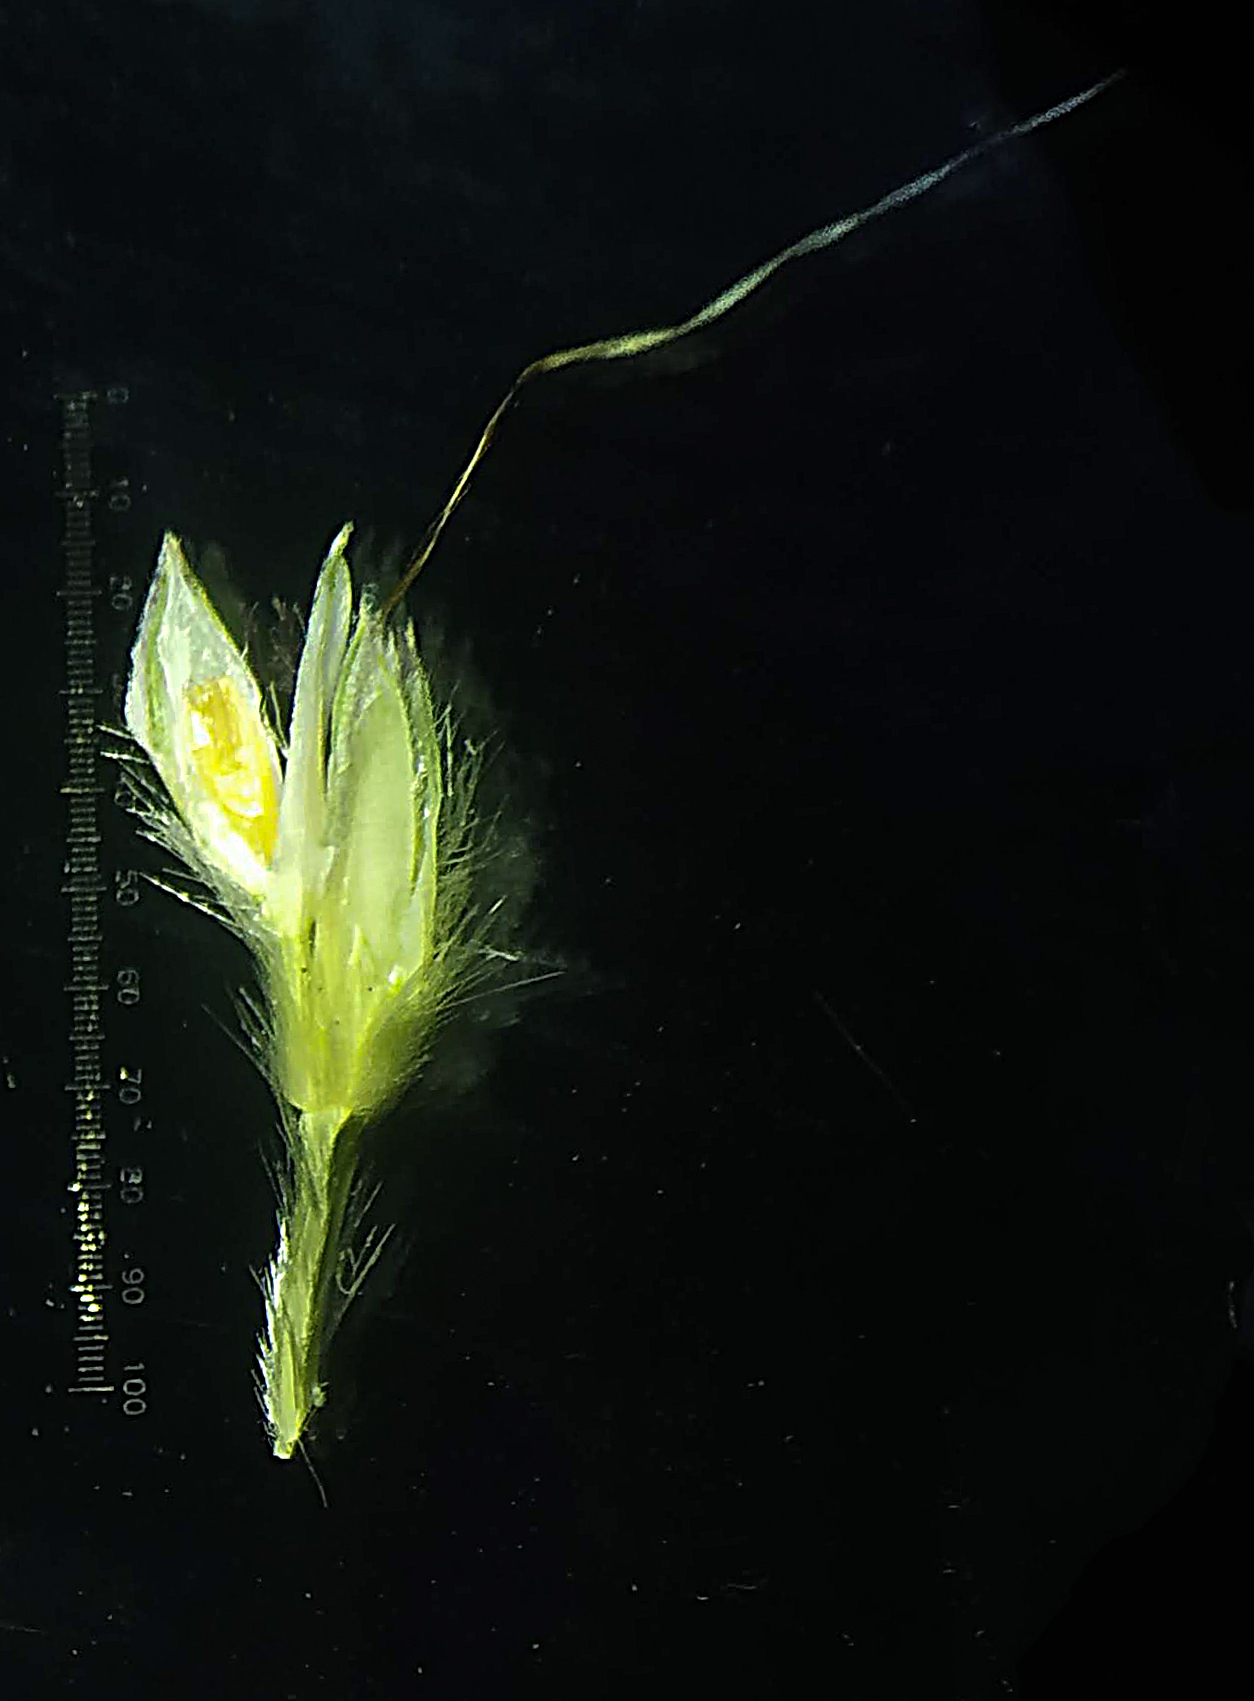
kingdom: Plantae
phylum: Tracheophyta
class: Liliopsida
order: Poales
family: Poaceae
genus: Ischaemum
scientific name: Ischaemum molle
